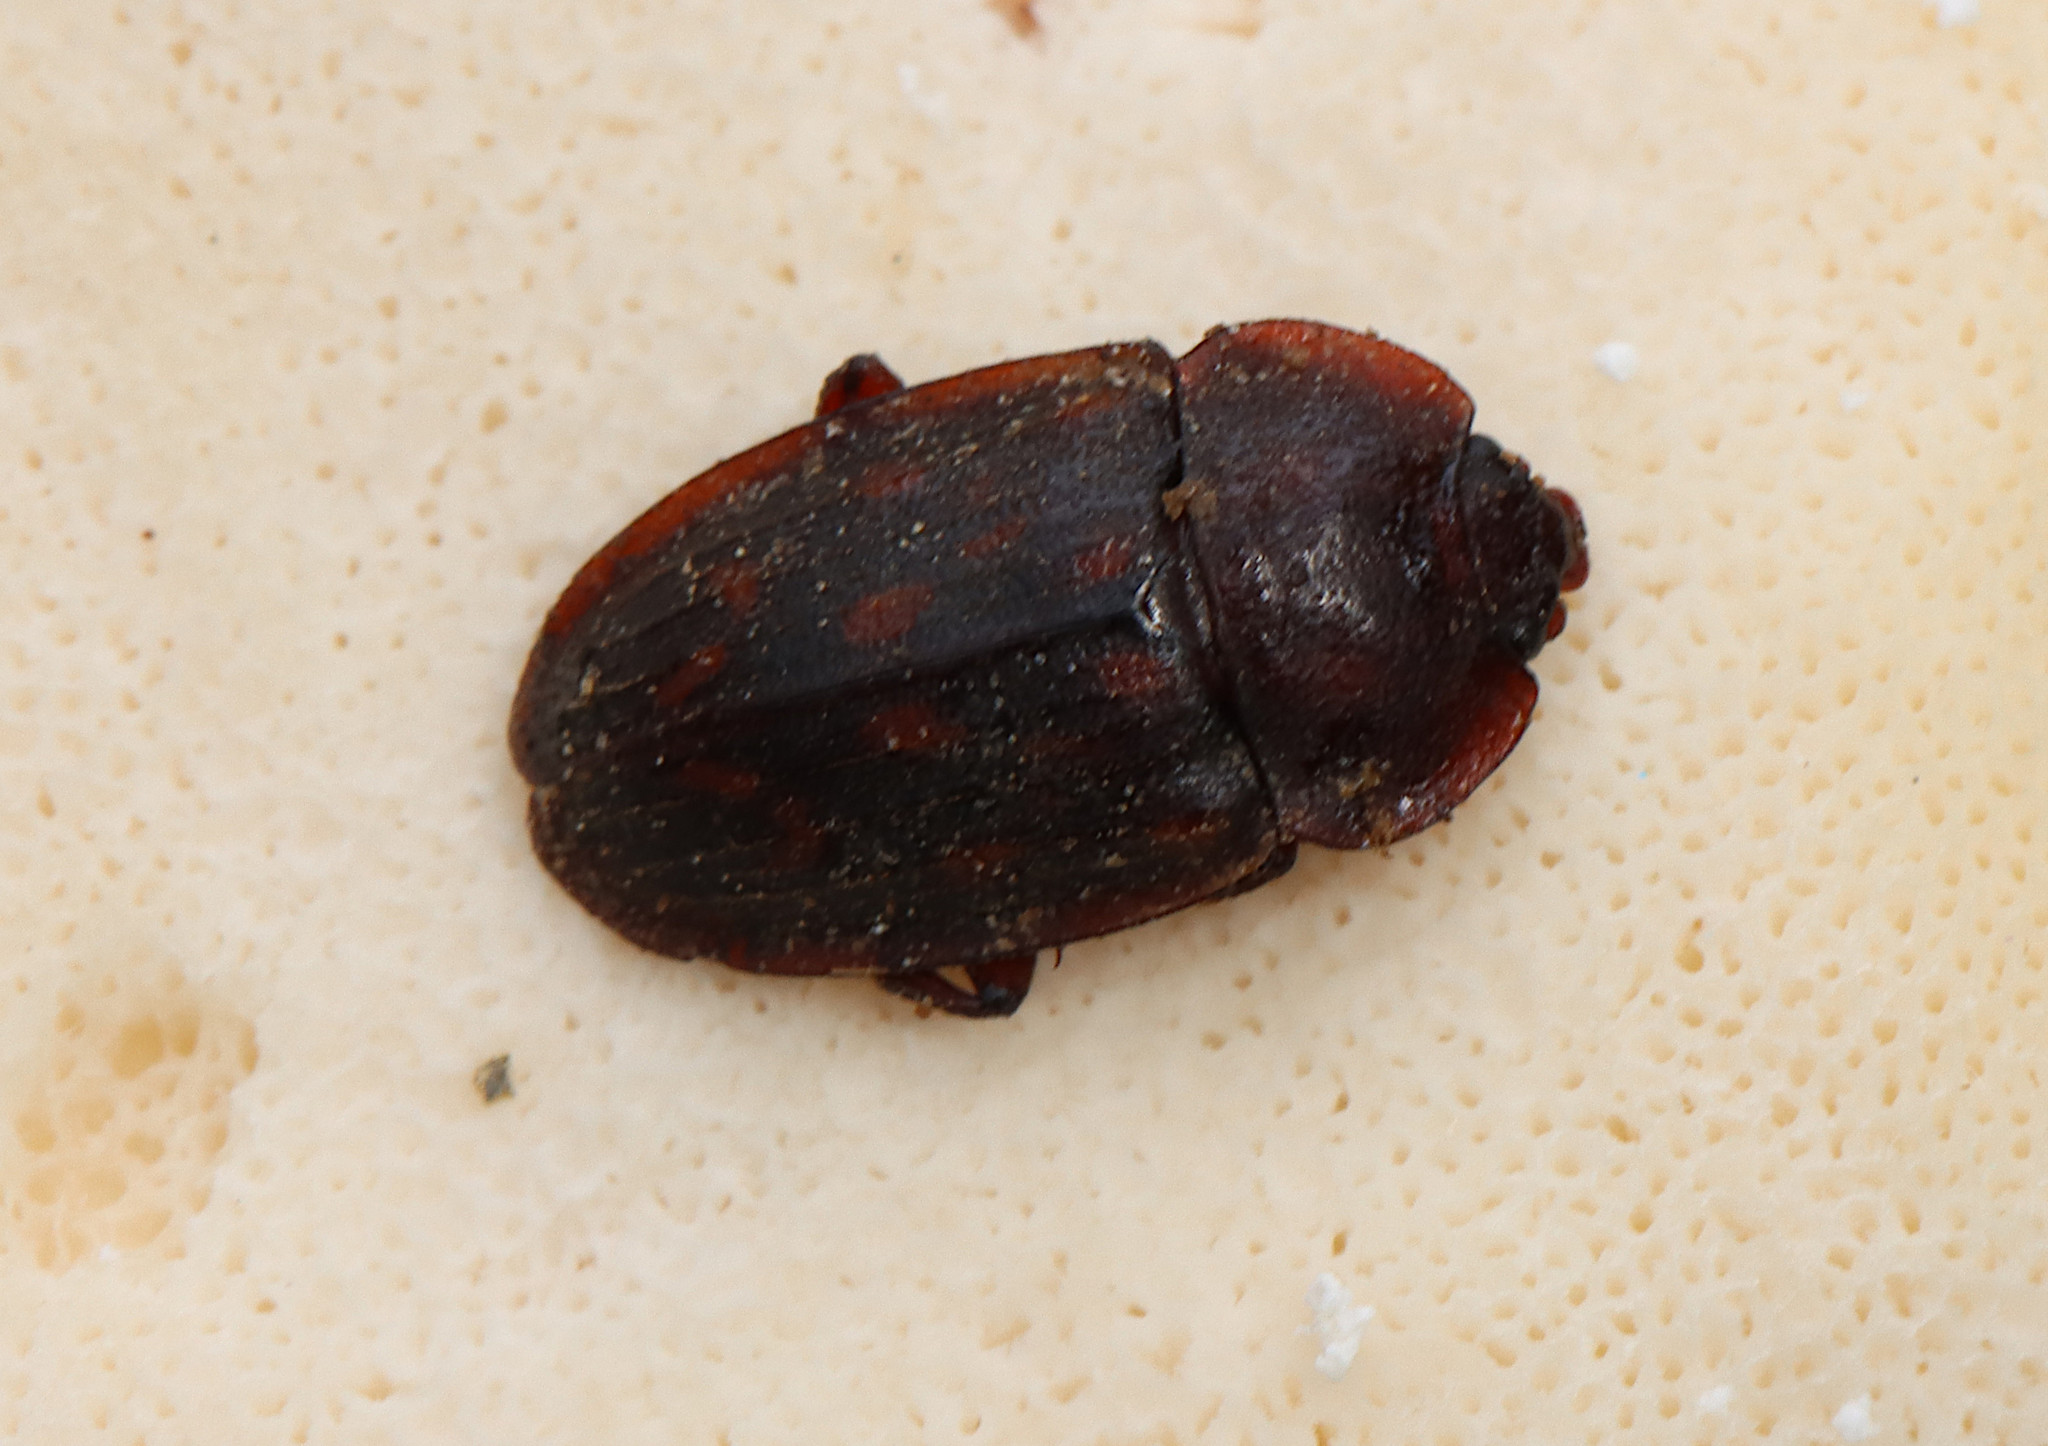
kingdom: Animalia
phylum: Arthropoda
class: Insecta
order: Coleoptera
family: Nitidulidae
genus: Phenolia
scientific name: Phenolia grossa
